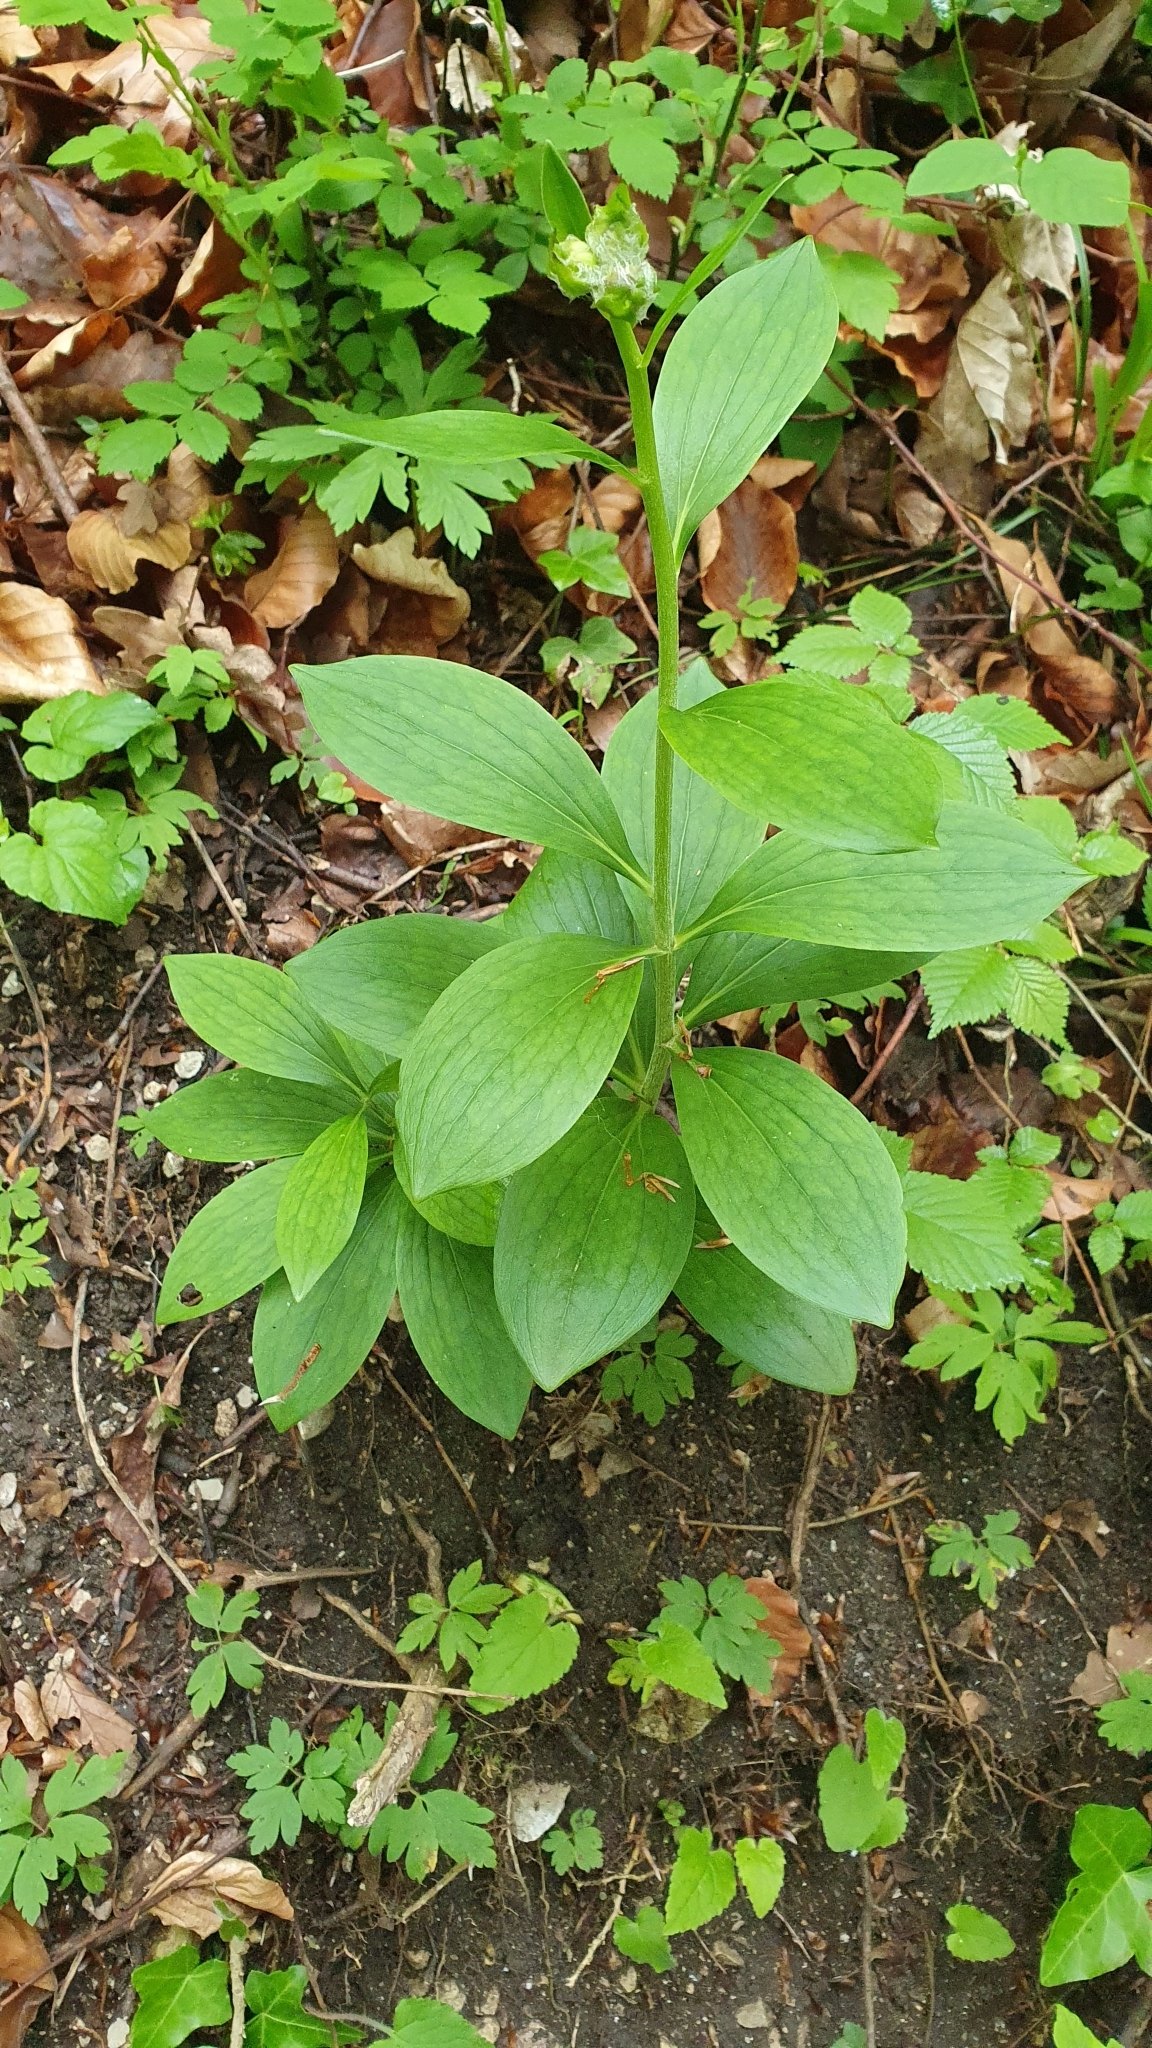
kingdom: Plantae
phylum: Tracheophyta
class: Liliopsida
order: Liliales
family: Liliaceae
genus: Lilium
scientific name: Lilium martagon
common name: Martagon lily
